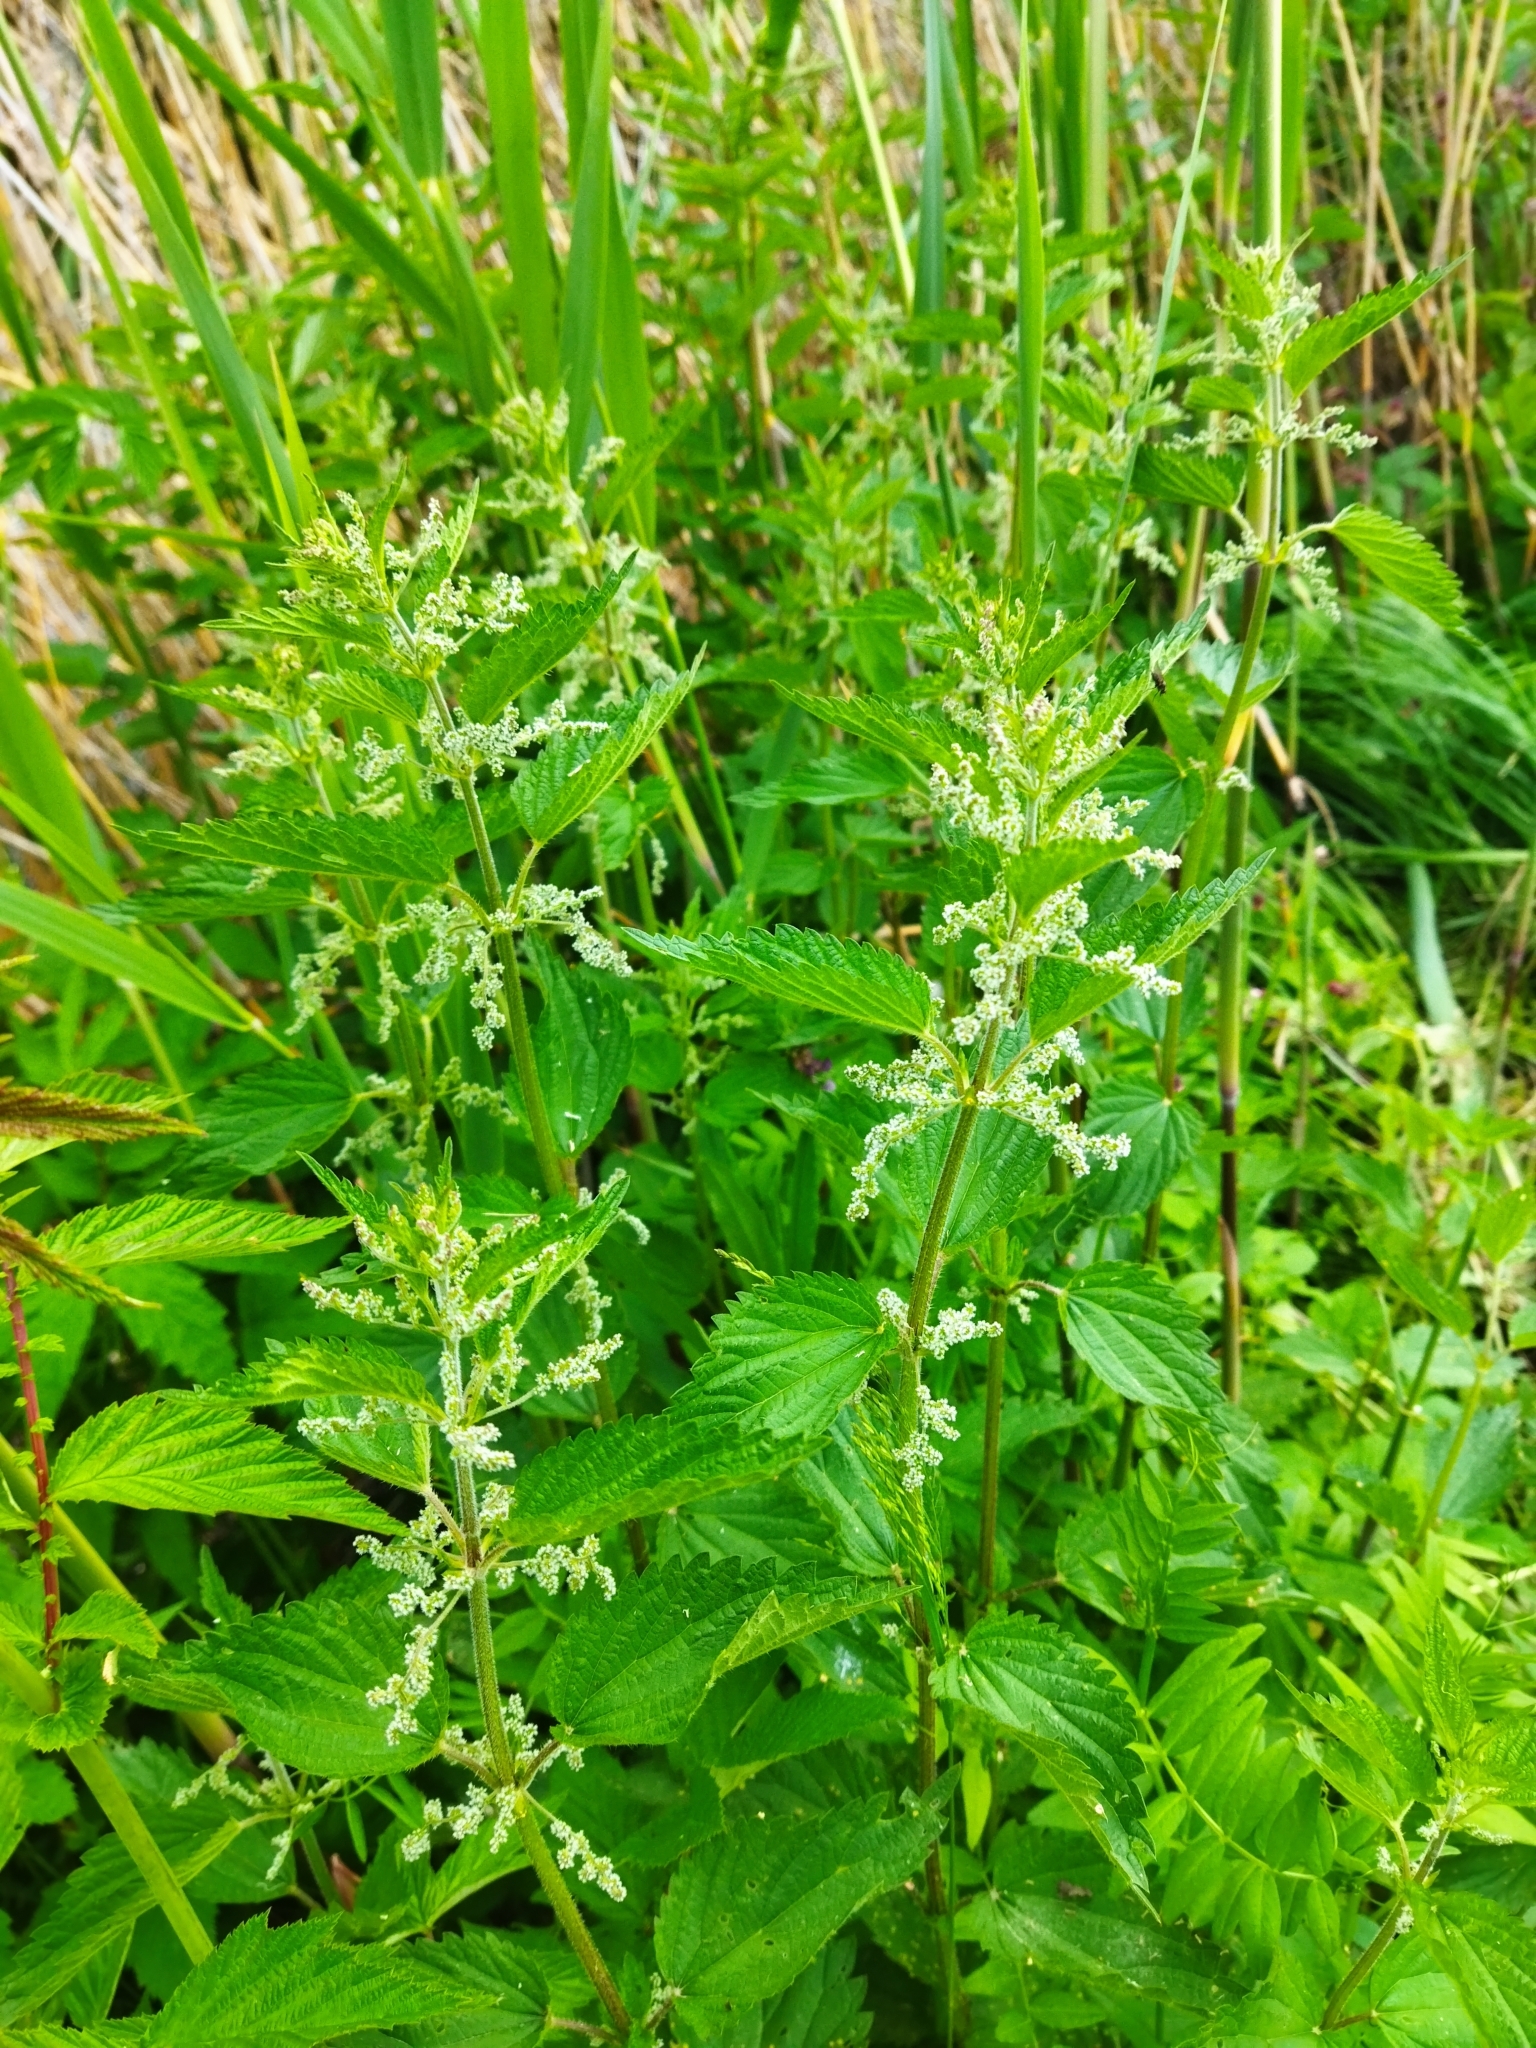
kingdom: Plantae
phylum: Tracheophyta
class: Magnoliopsida
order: Rosales
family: Urticaceae
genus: Urtica
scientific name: Urtica dioica
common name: Common nettle
